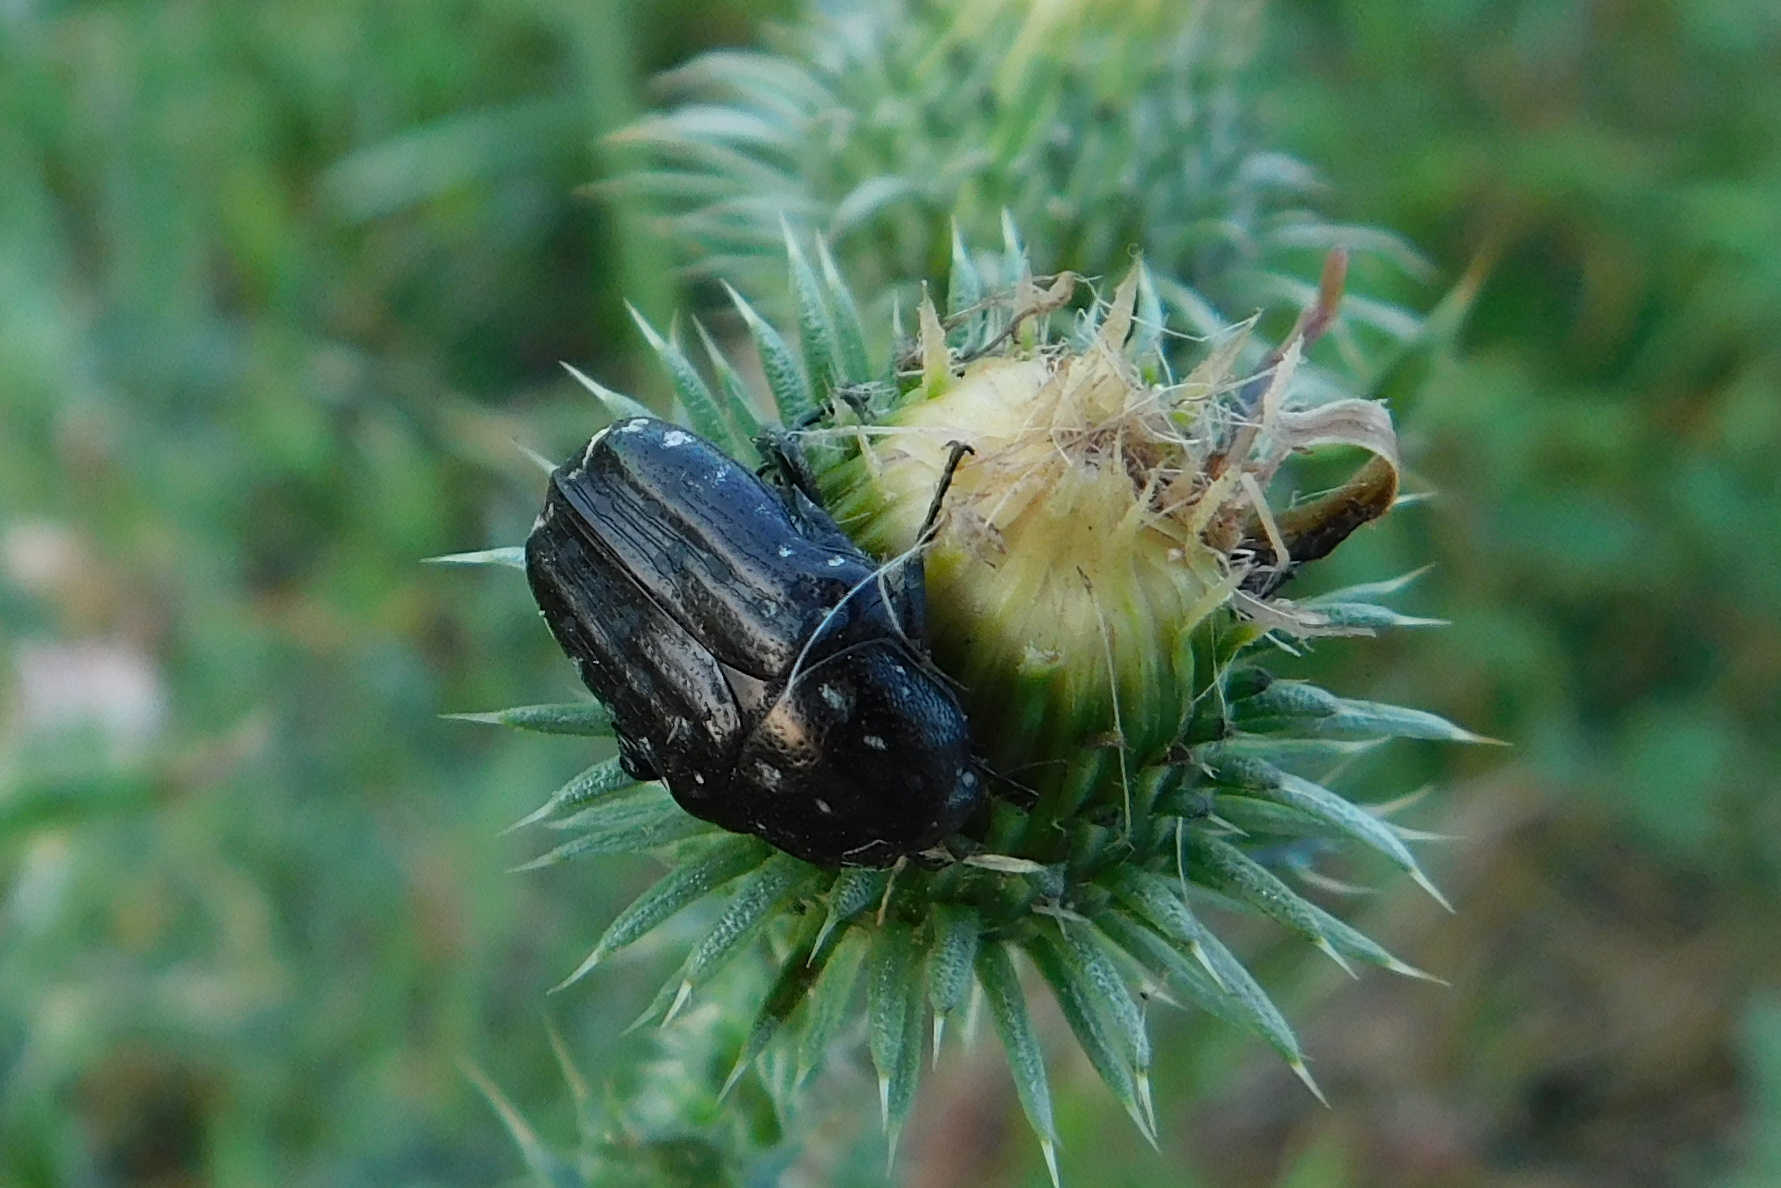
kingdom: Animalia
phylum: Arthropoda
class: Insecta
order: Coleoptera
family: Scarabaeidae
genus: Oxythyrea
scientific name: Oxythyrea funesta
